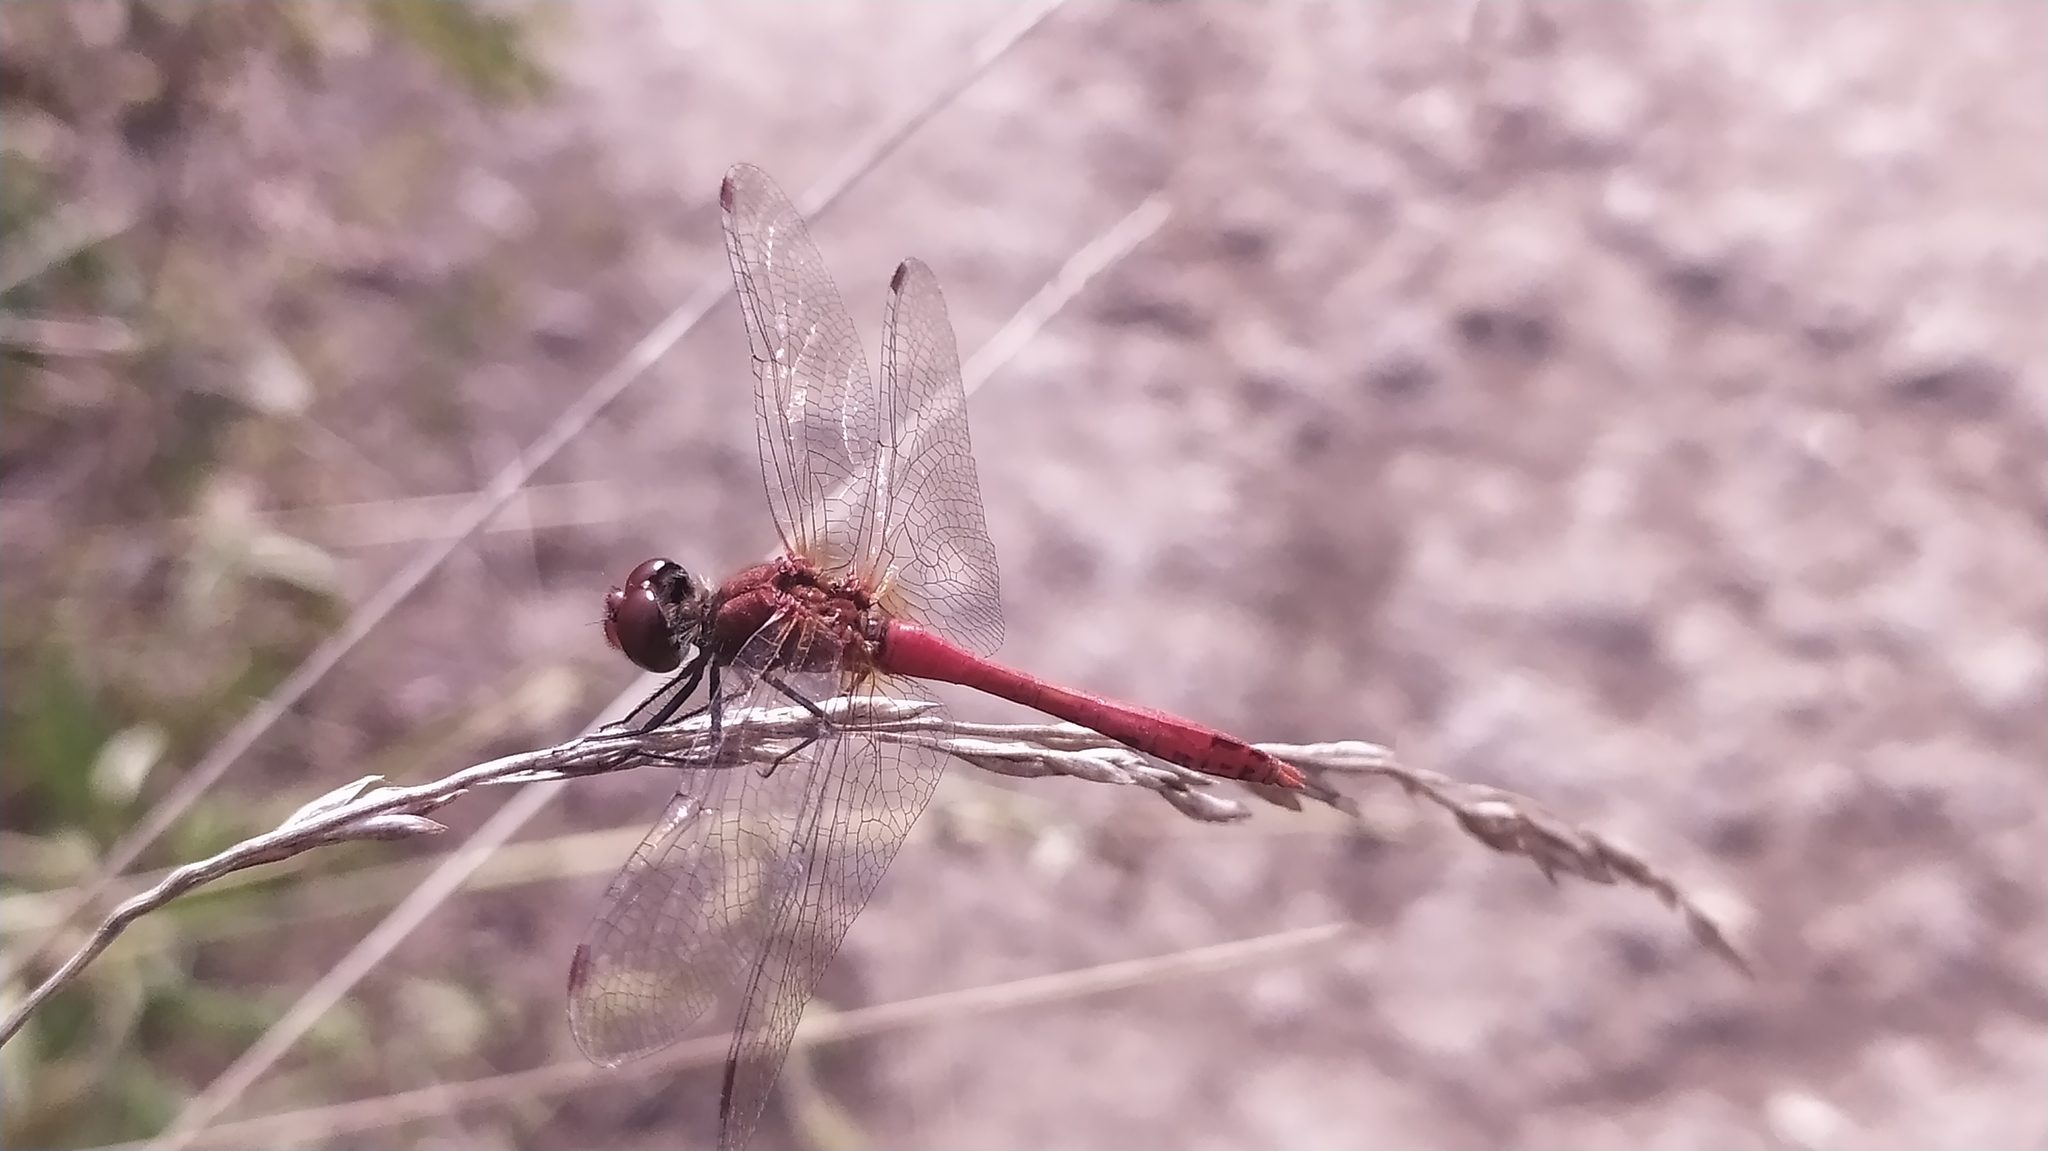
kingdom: Animalia
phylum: Arthropoda
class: Insecta
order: Odonata
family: Libellulidae
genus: Sympetrum
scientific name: Sympetrum sanguineum
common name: Ruddy darter
